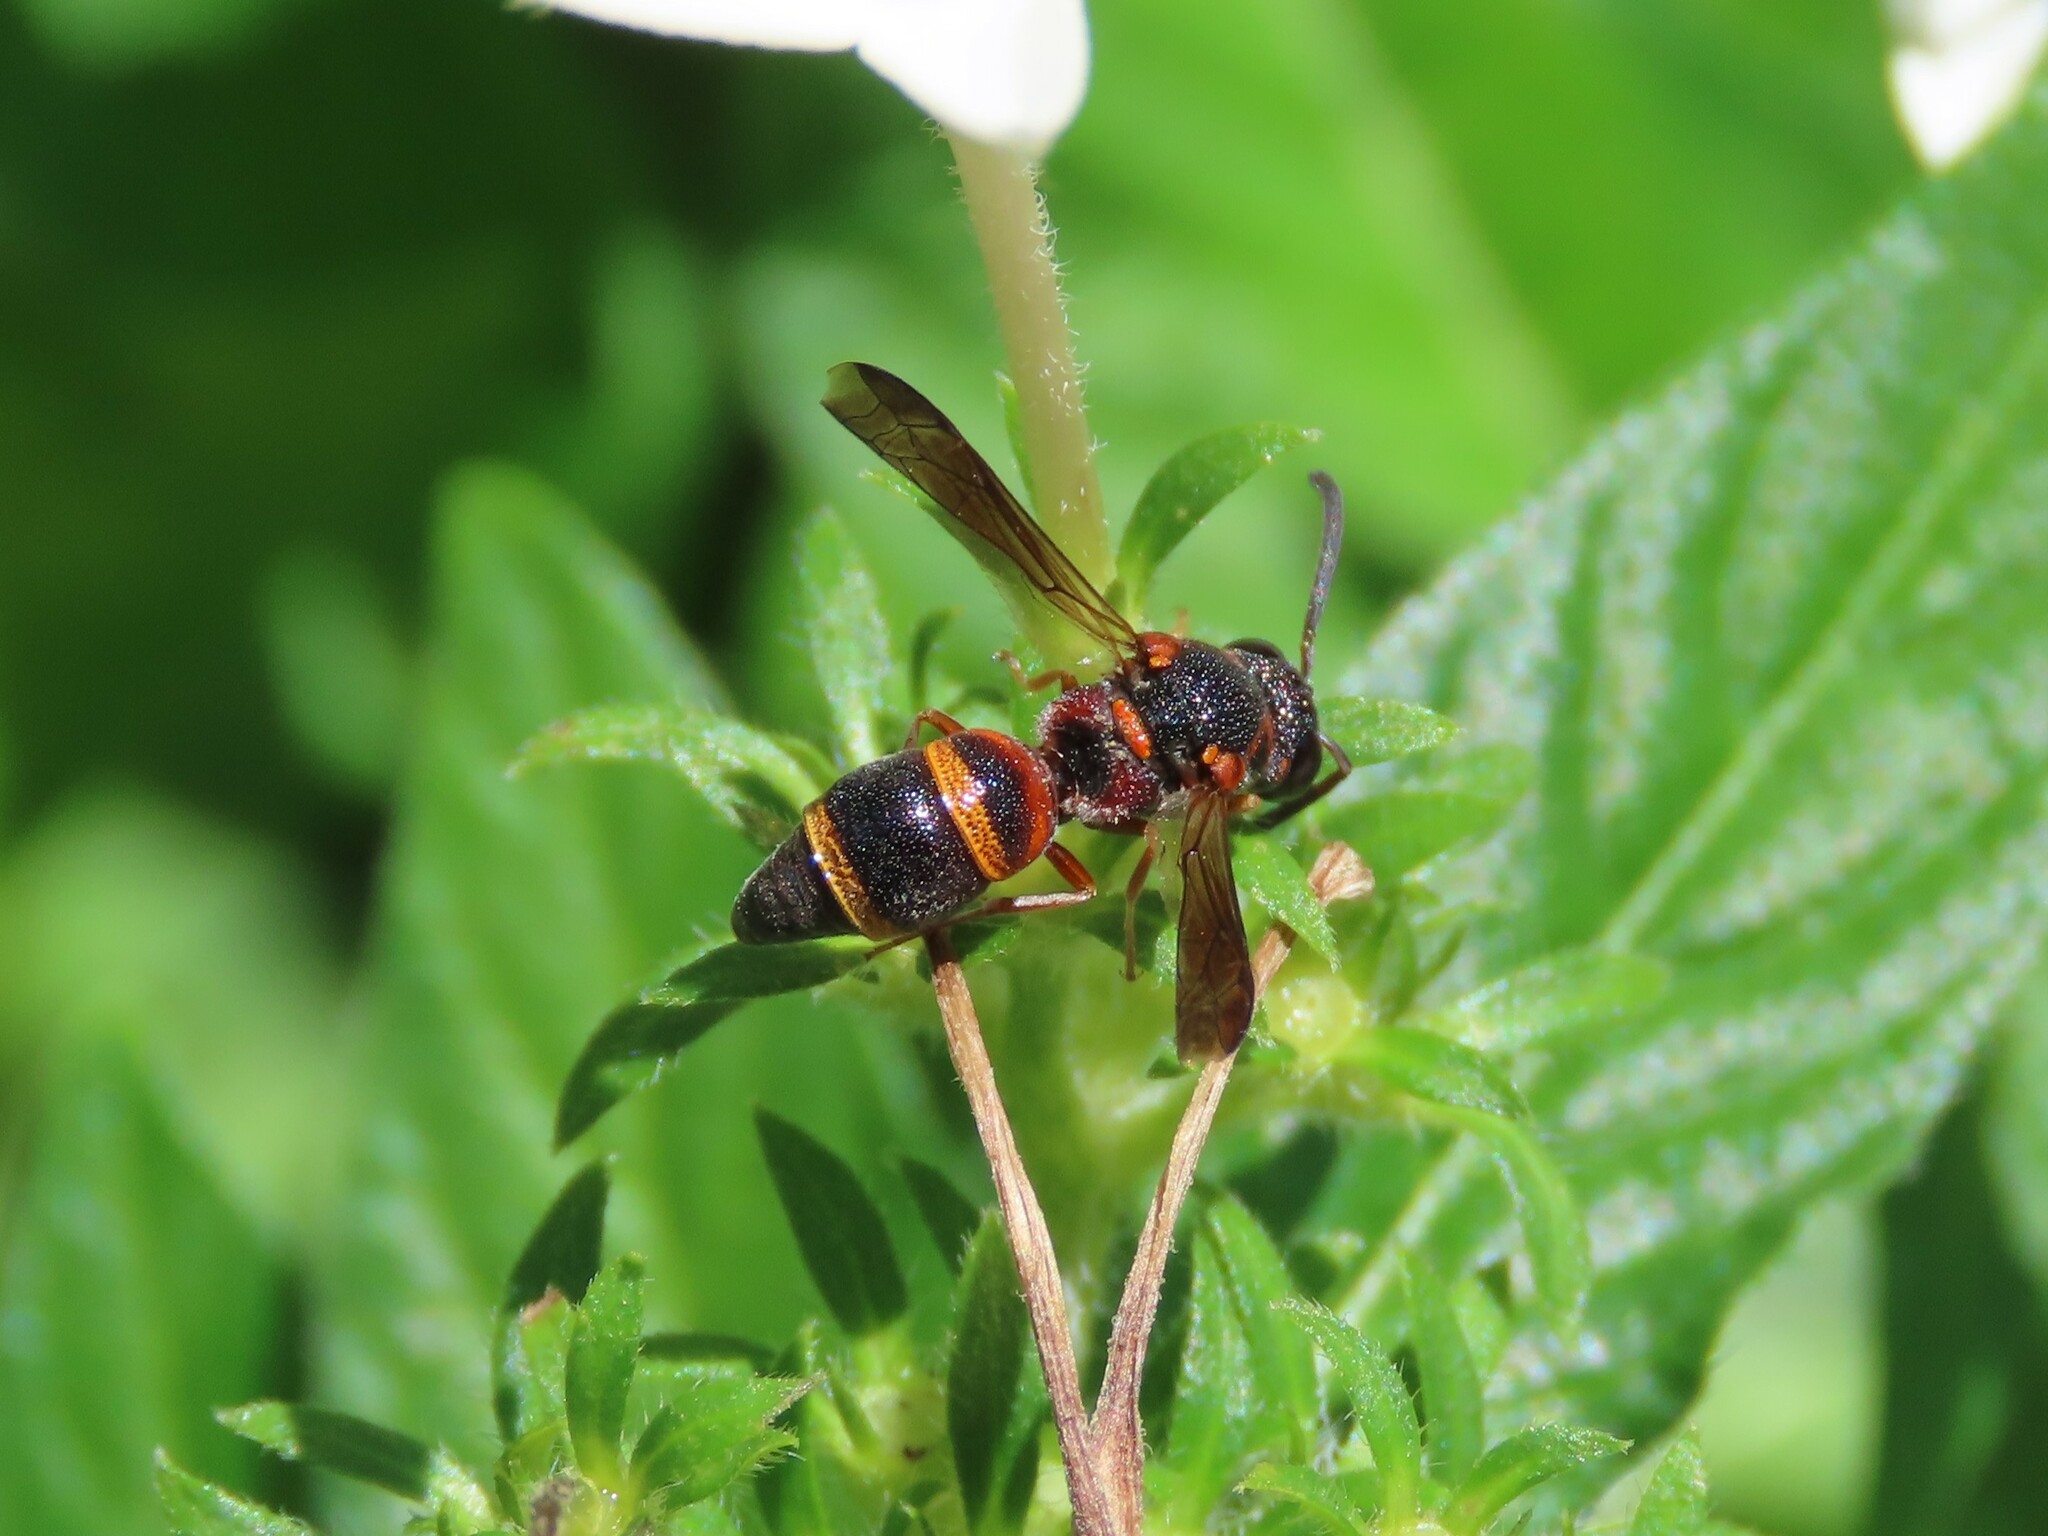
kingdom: Animalia
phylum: Arthropoda
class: Insecta
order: Hymenoptera
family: Eumenidae
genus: Parancistrocerus
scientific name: Parancistrocerus fulvipes
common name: Potter wasp
